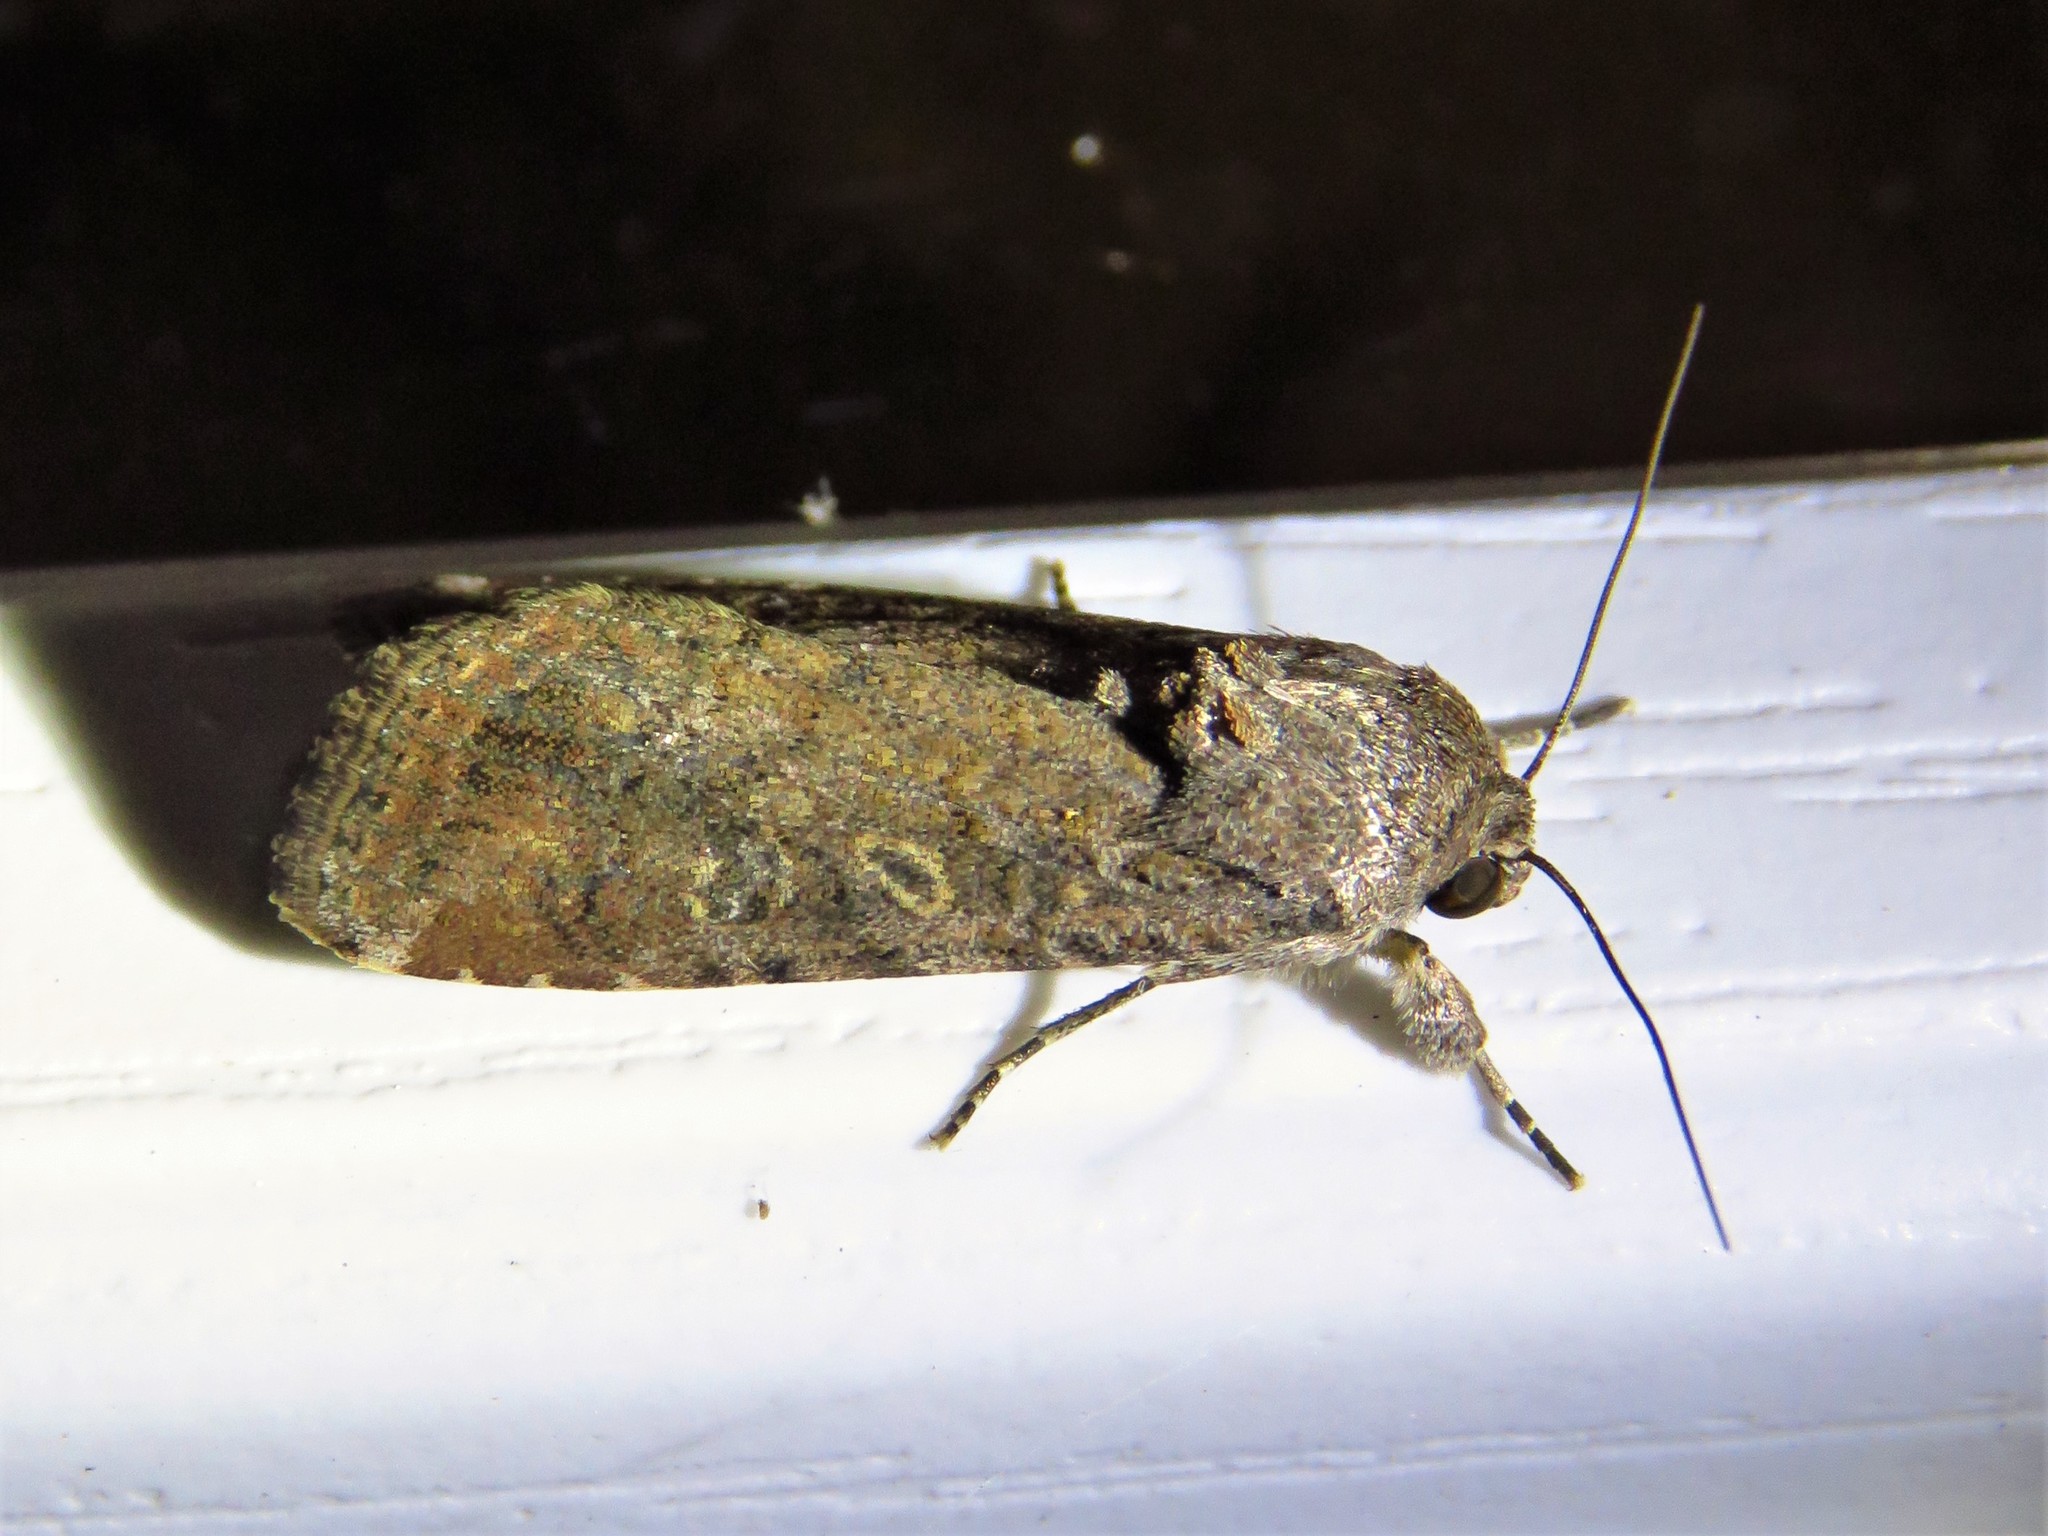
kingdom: Animalia
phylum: Arthropoda
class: Insecta
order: Lepidoptera
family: Noctuidae
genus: Spodoptera
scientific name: Spodoptera exigua
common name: Beet armyworm
